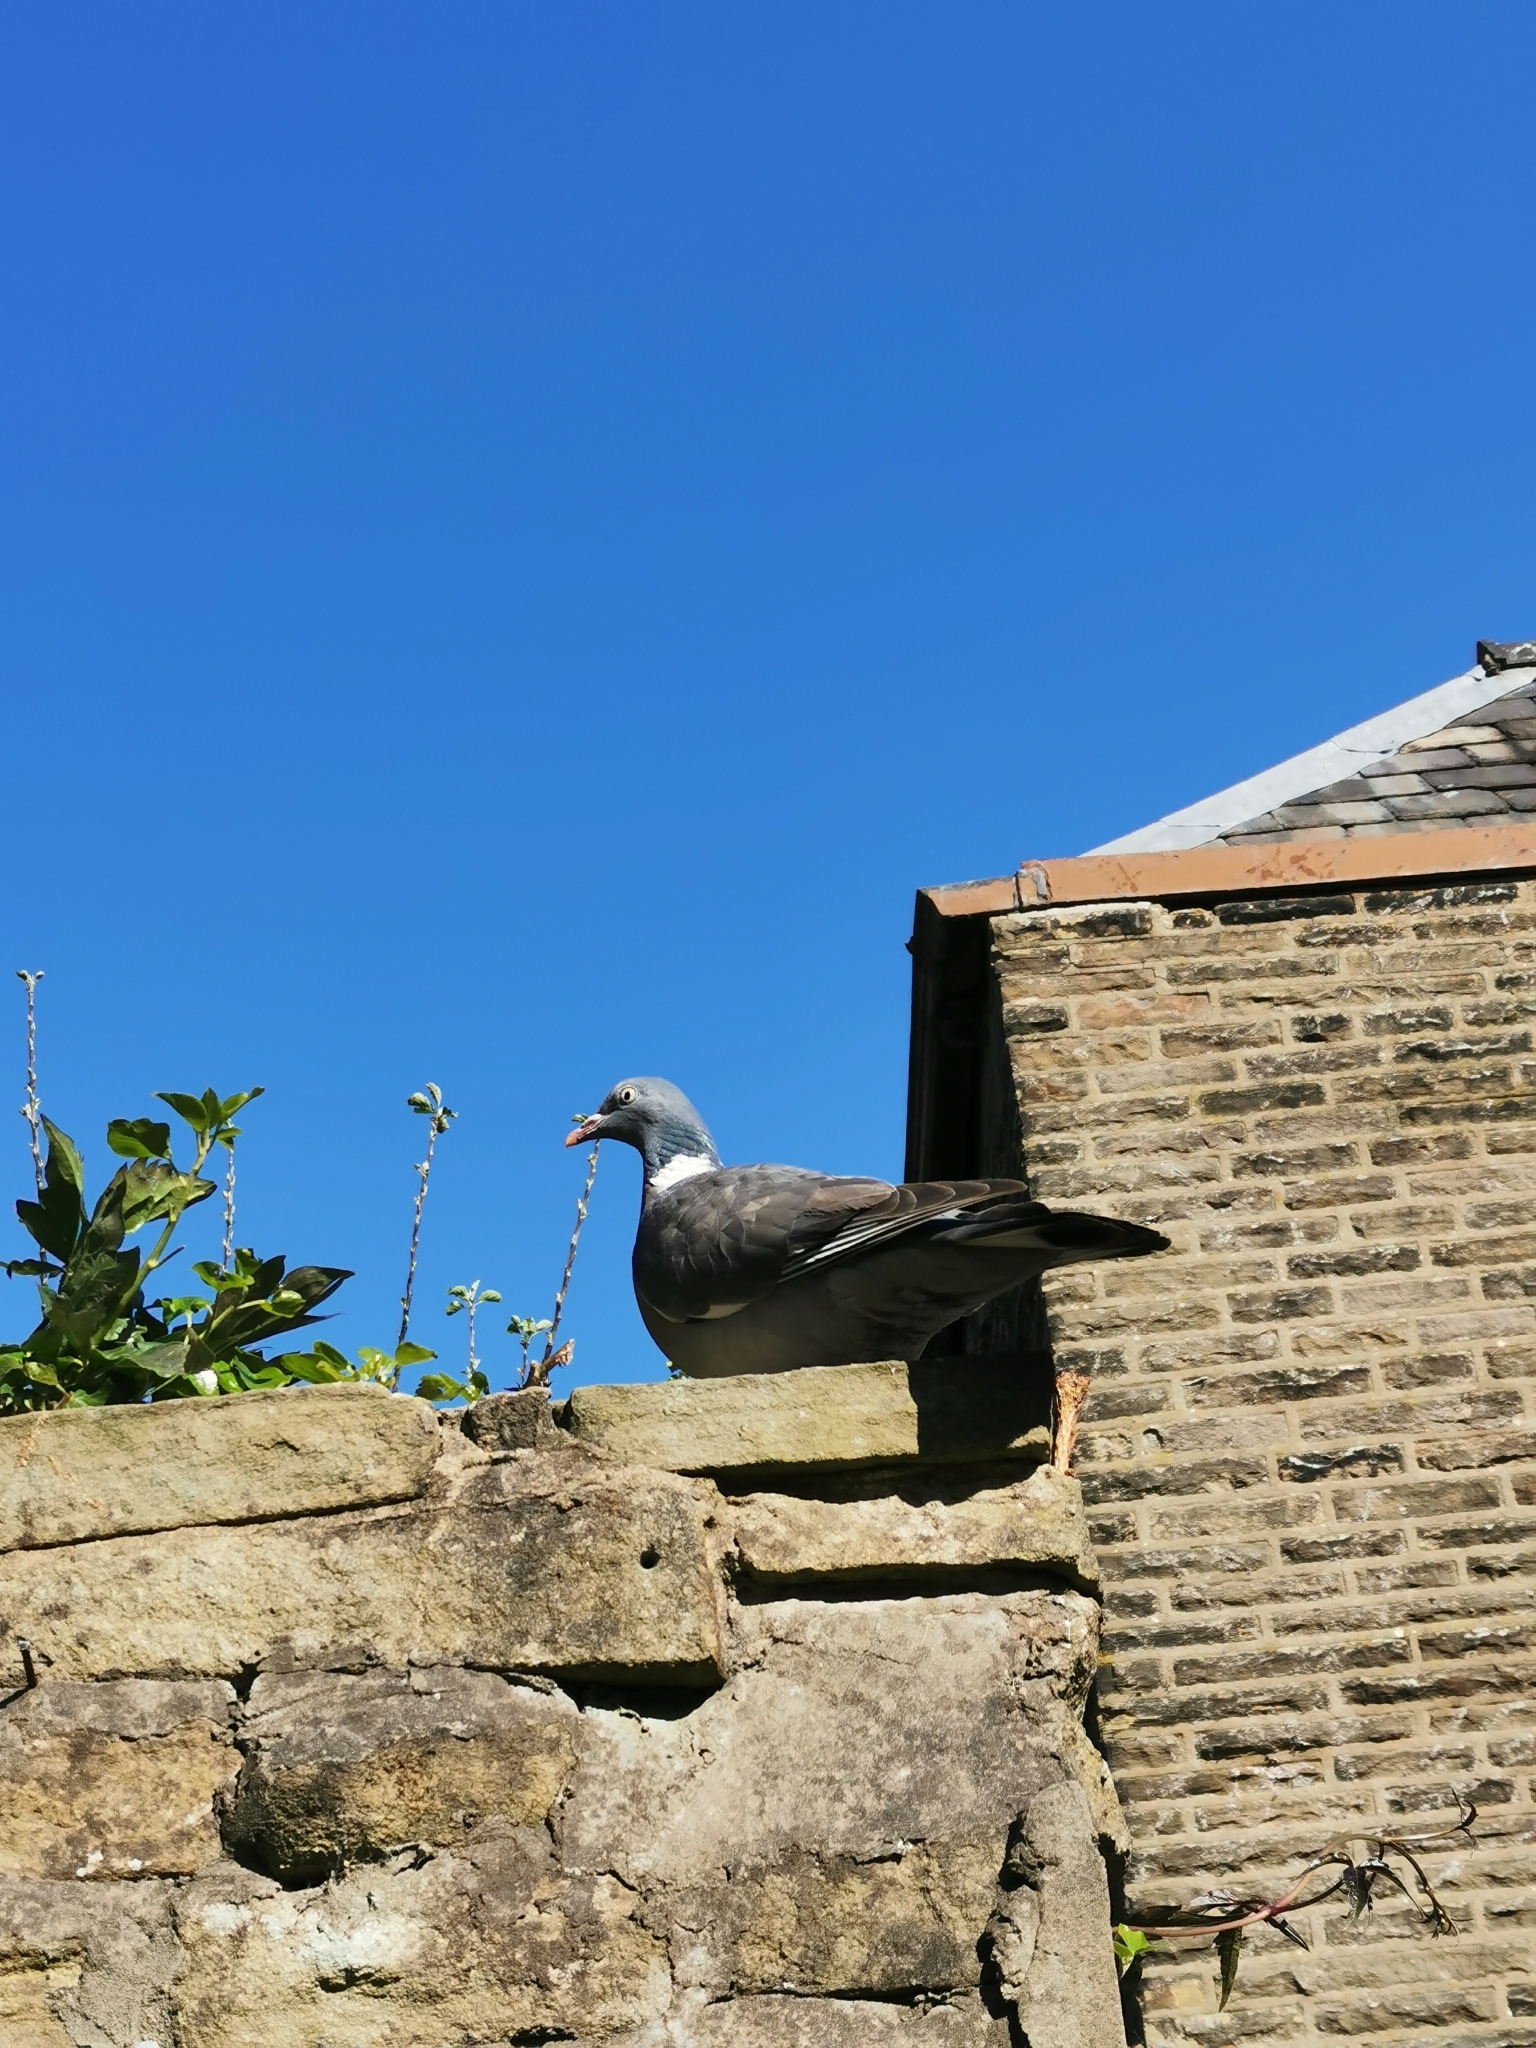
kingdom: Animalia
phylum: Chordata
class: Aves
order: Columbiformes
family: Columbidae
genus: Columba
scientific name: Columba palumbus
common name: Common wood pigeon
